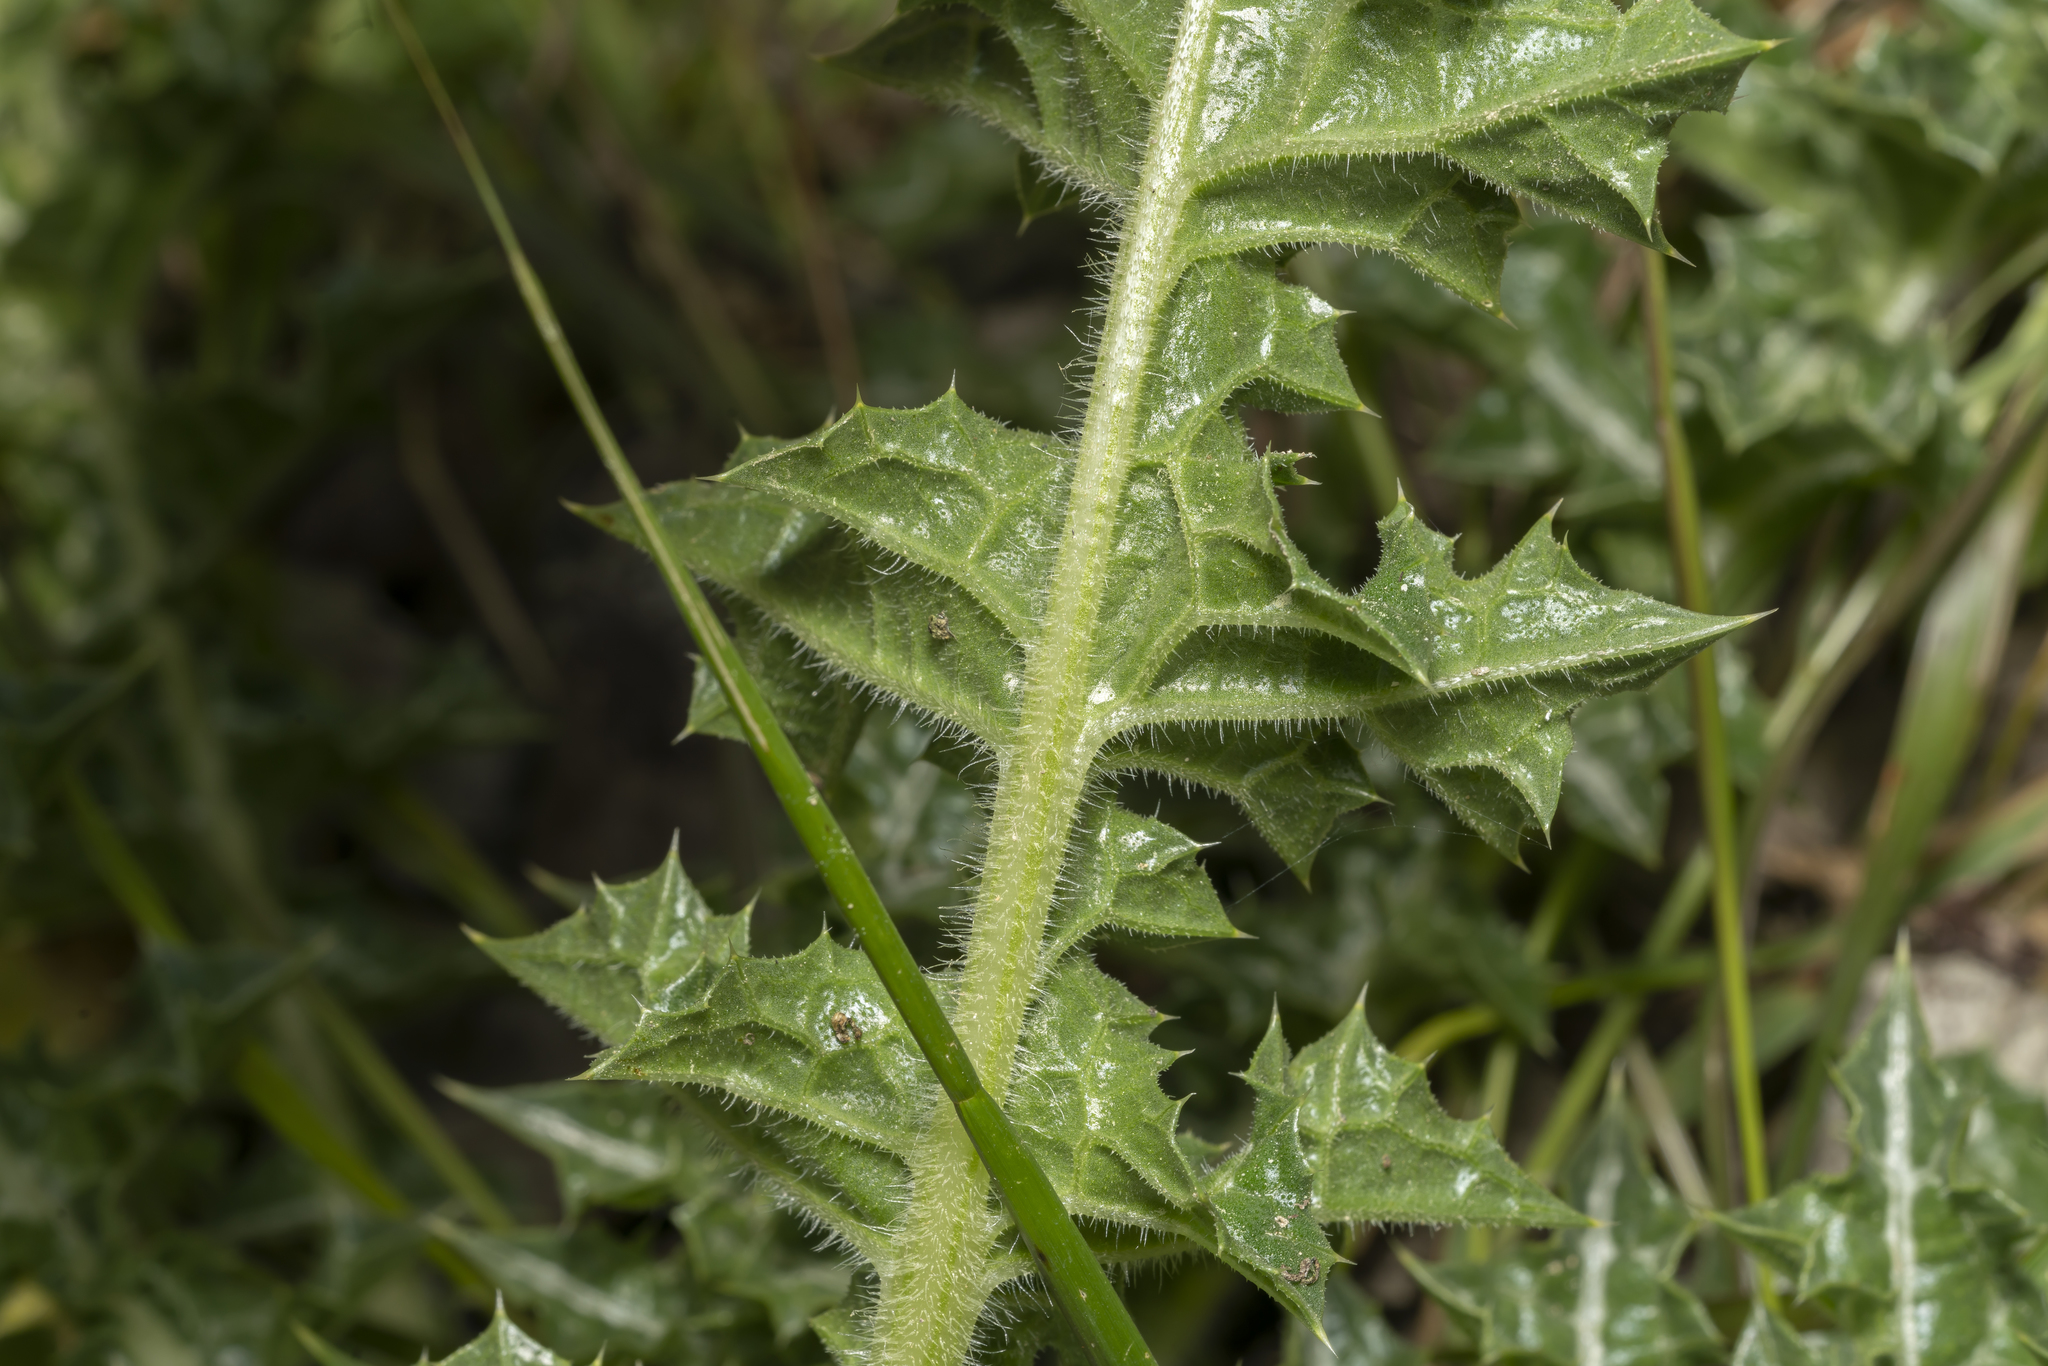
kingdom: Plantae
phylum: Tracheophyta
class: Magnoliopsida
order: Asterales
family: Asteraceae
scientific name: Asteraceae
